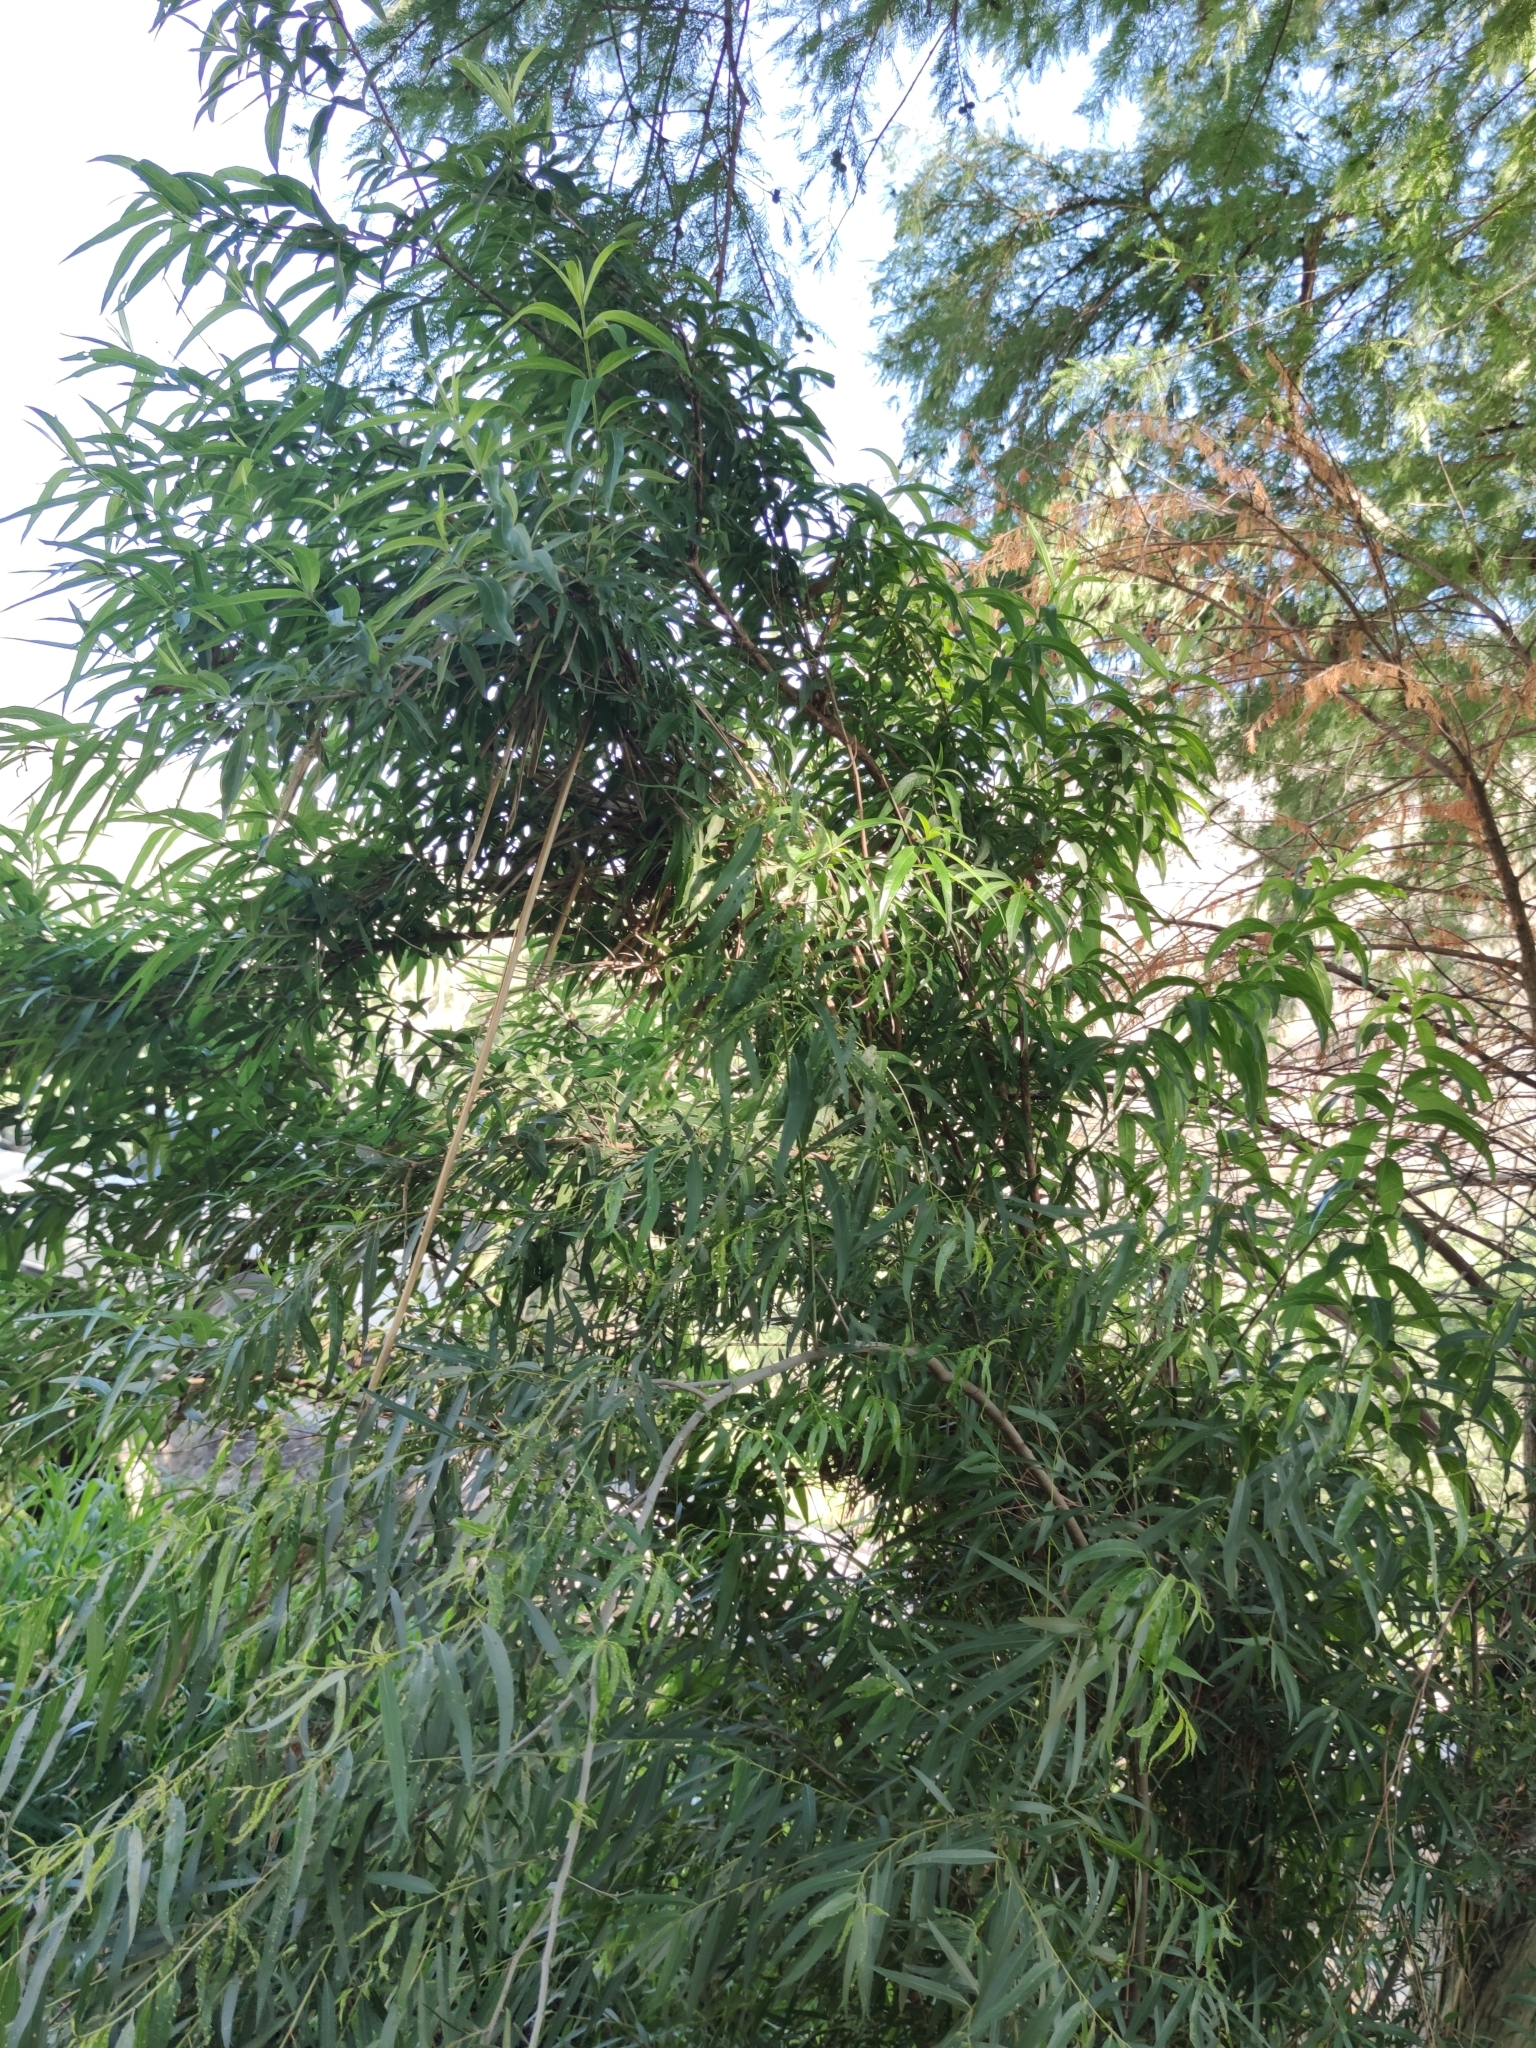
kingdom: Plantae
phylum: Tracheophyta
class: Magnoliopsida
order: Malpighiales
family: Salicaceae
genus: Salix
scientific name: Salix nigra
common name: Black willow
